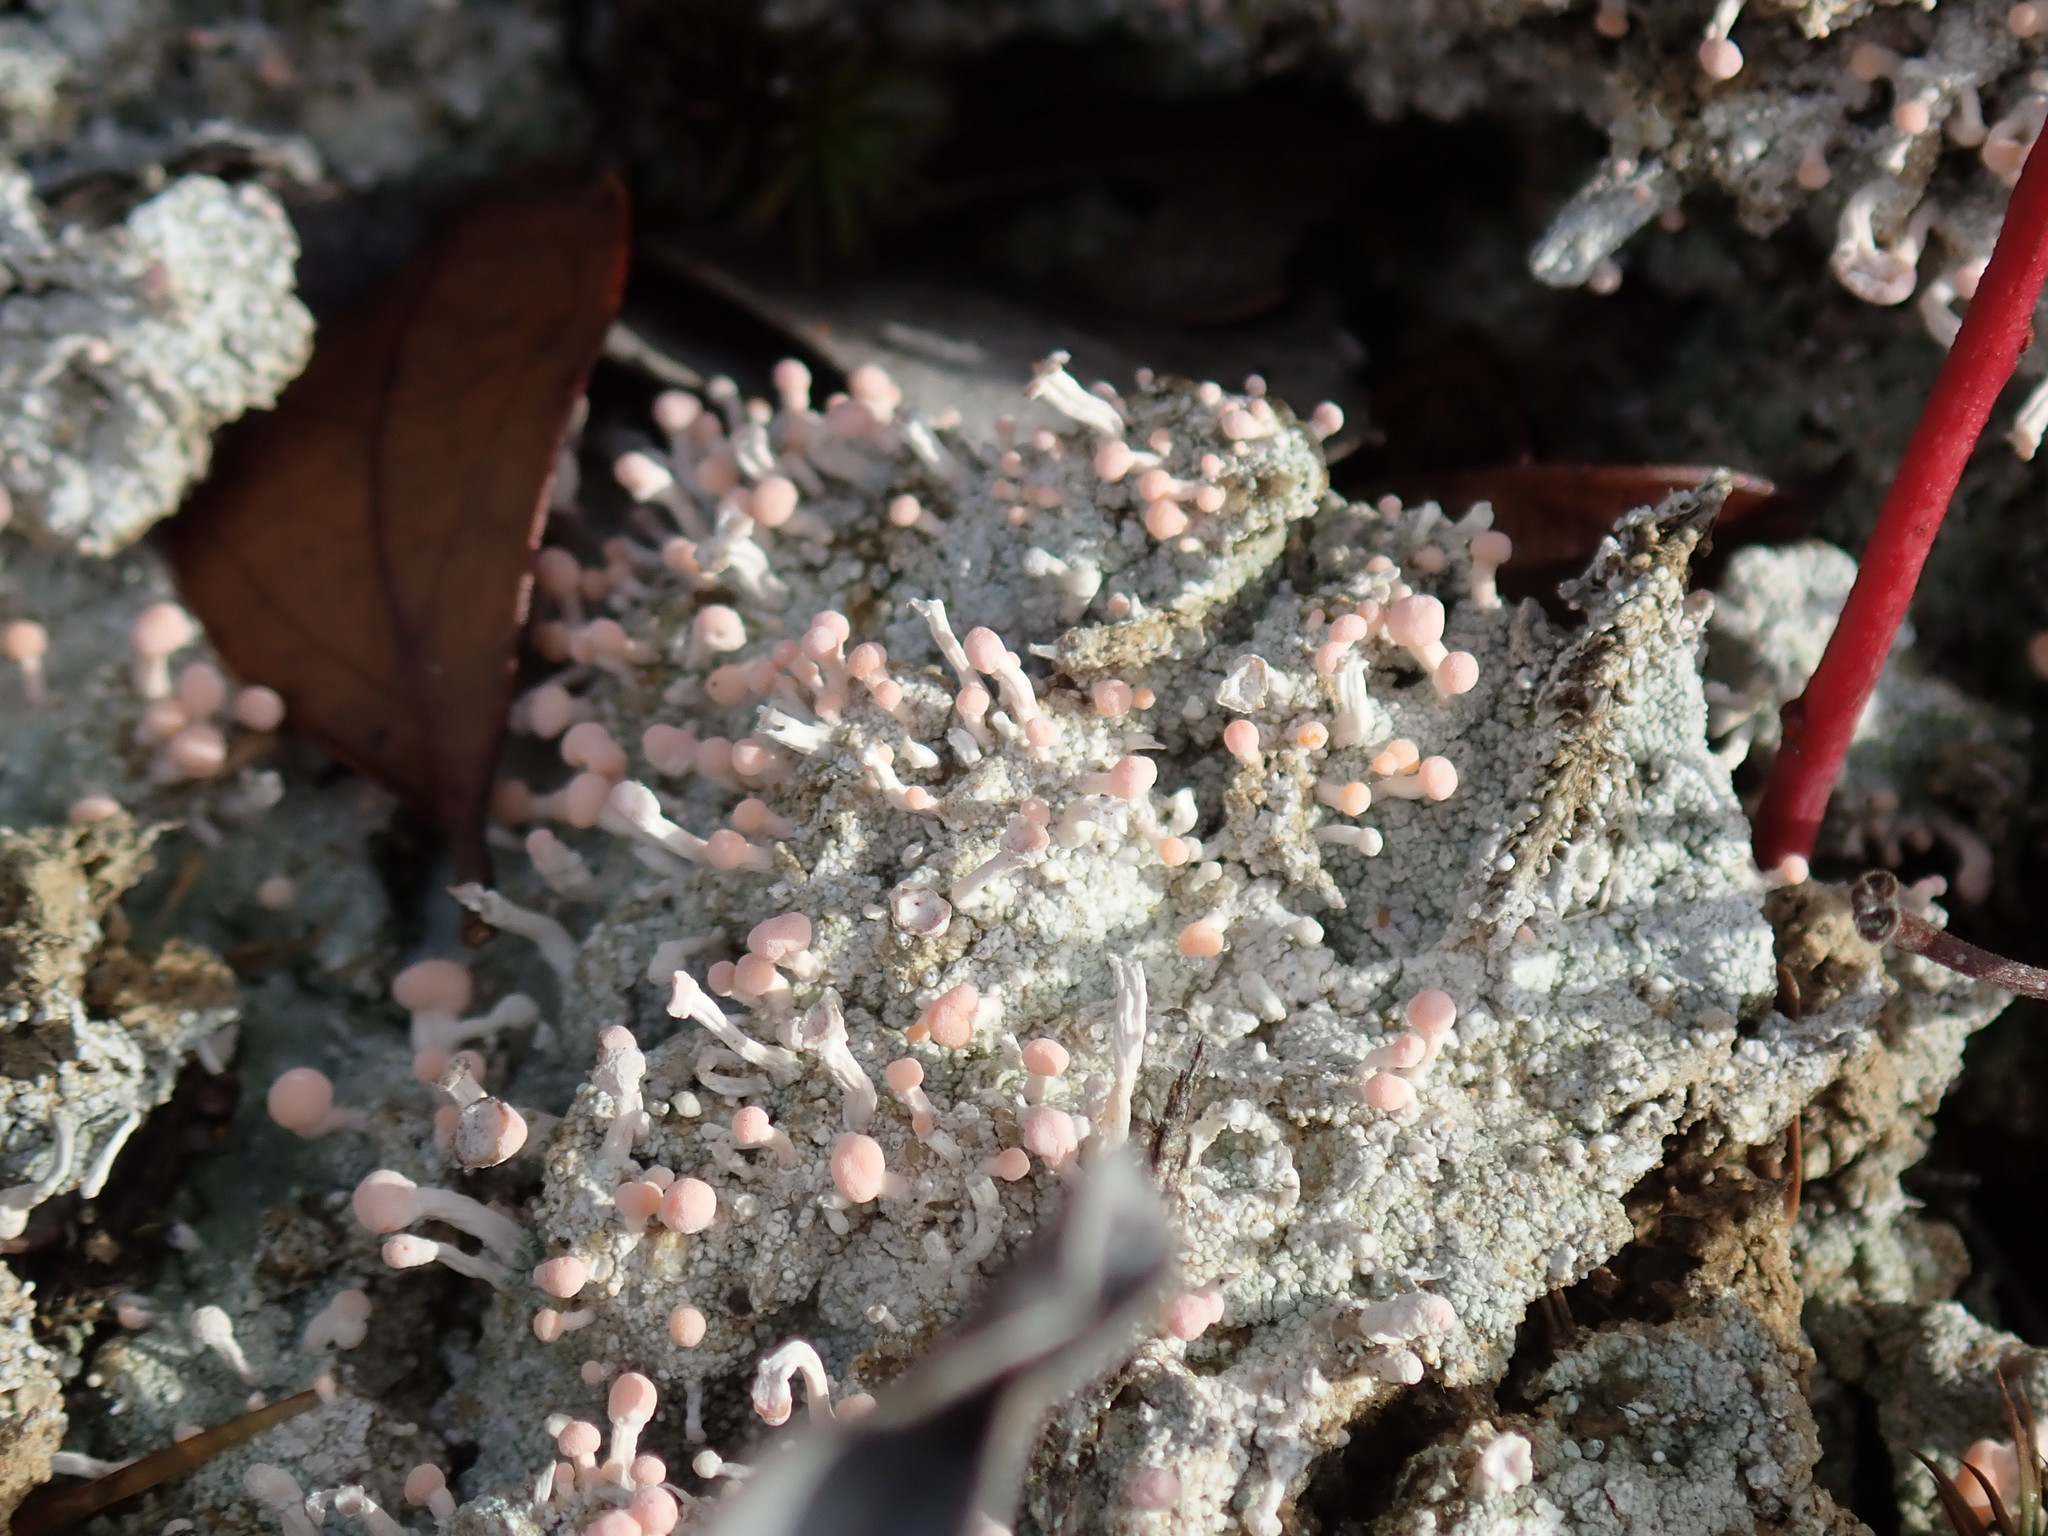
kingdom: Fungi
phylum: Ascomycota
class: Lecanoromycetes
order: Pertusariales
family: Icmadophilaceae
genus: Dibaeis
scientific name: Dibaeis baeomyces
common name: Pink earth lichen
